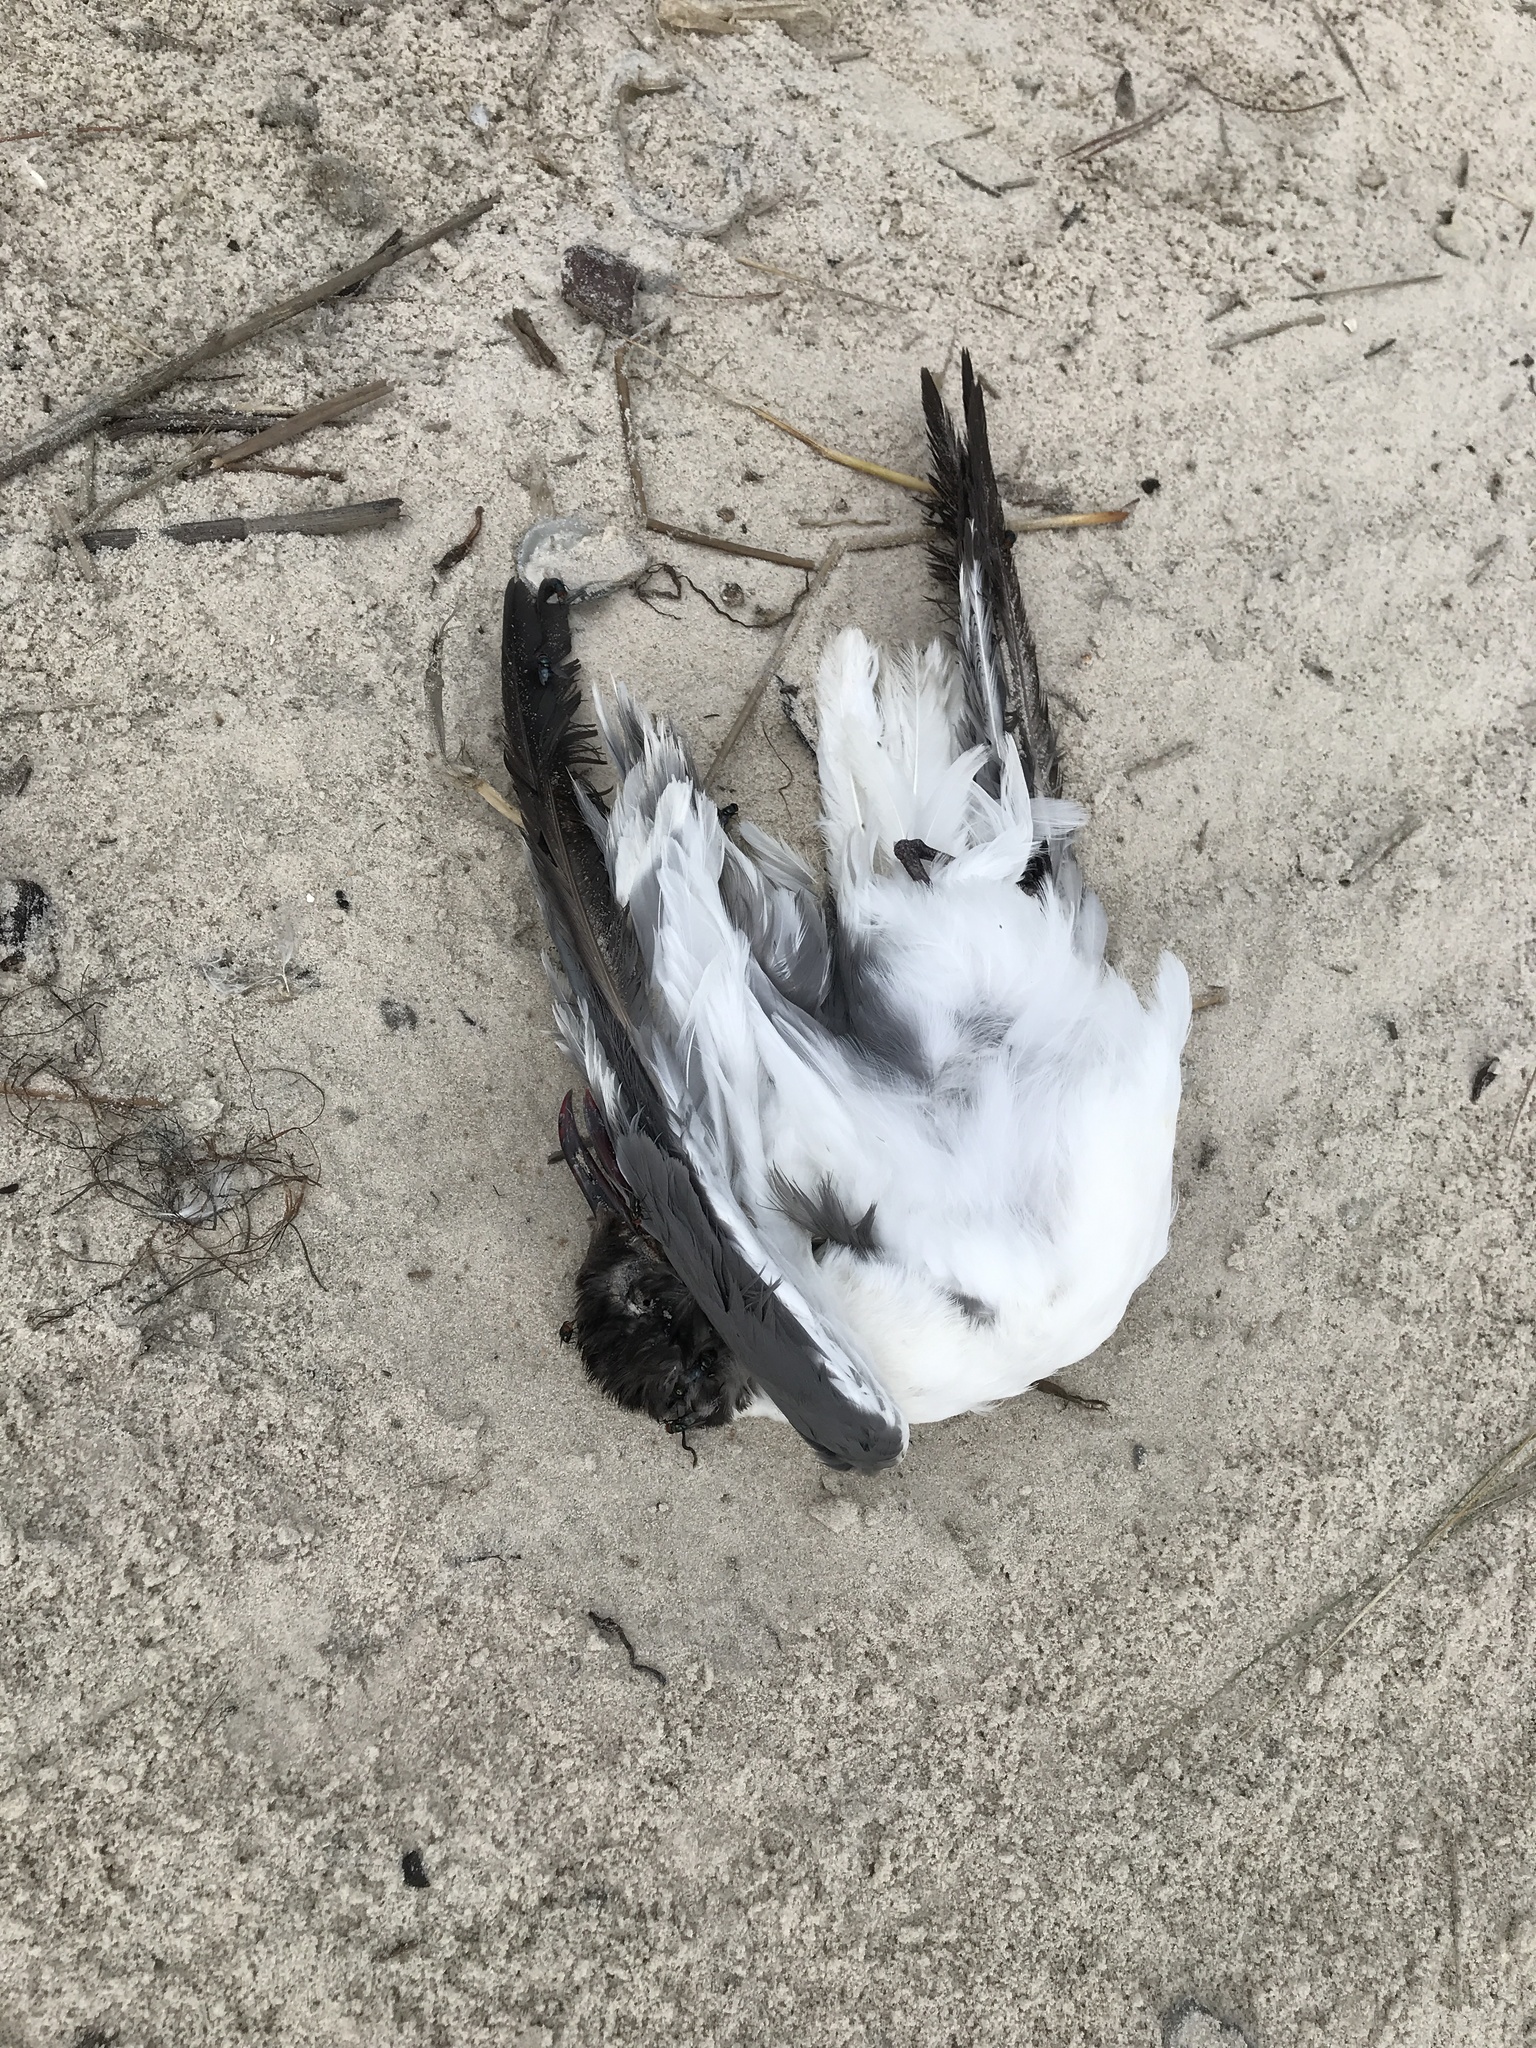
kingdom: Animalia
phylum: Chordata
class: Aves
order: Charadriiformes
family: Laridae
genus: Leucophaeus
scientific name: Leucophaeus atricilla
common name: Laughing gull
